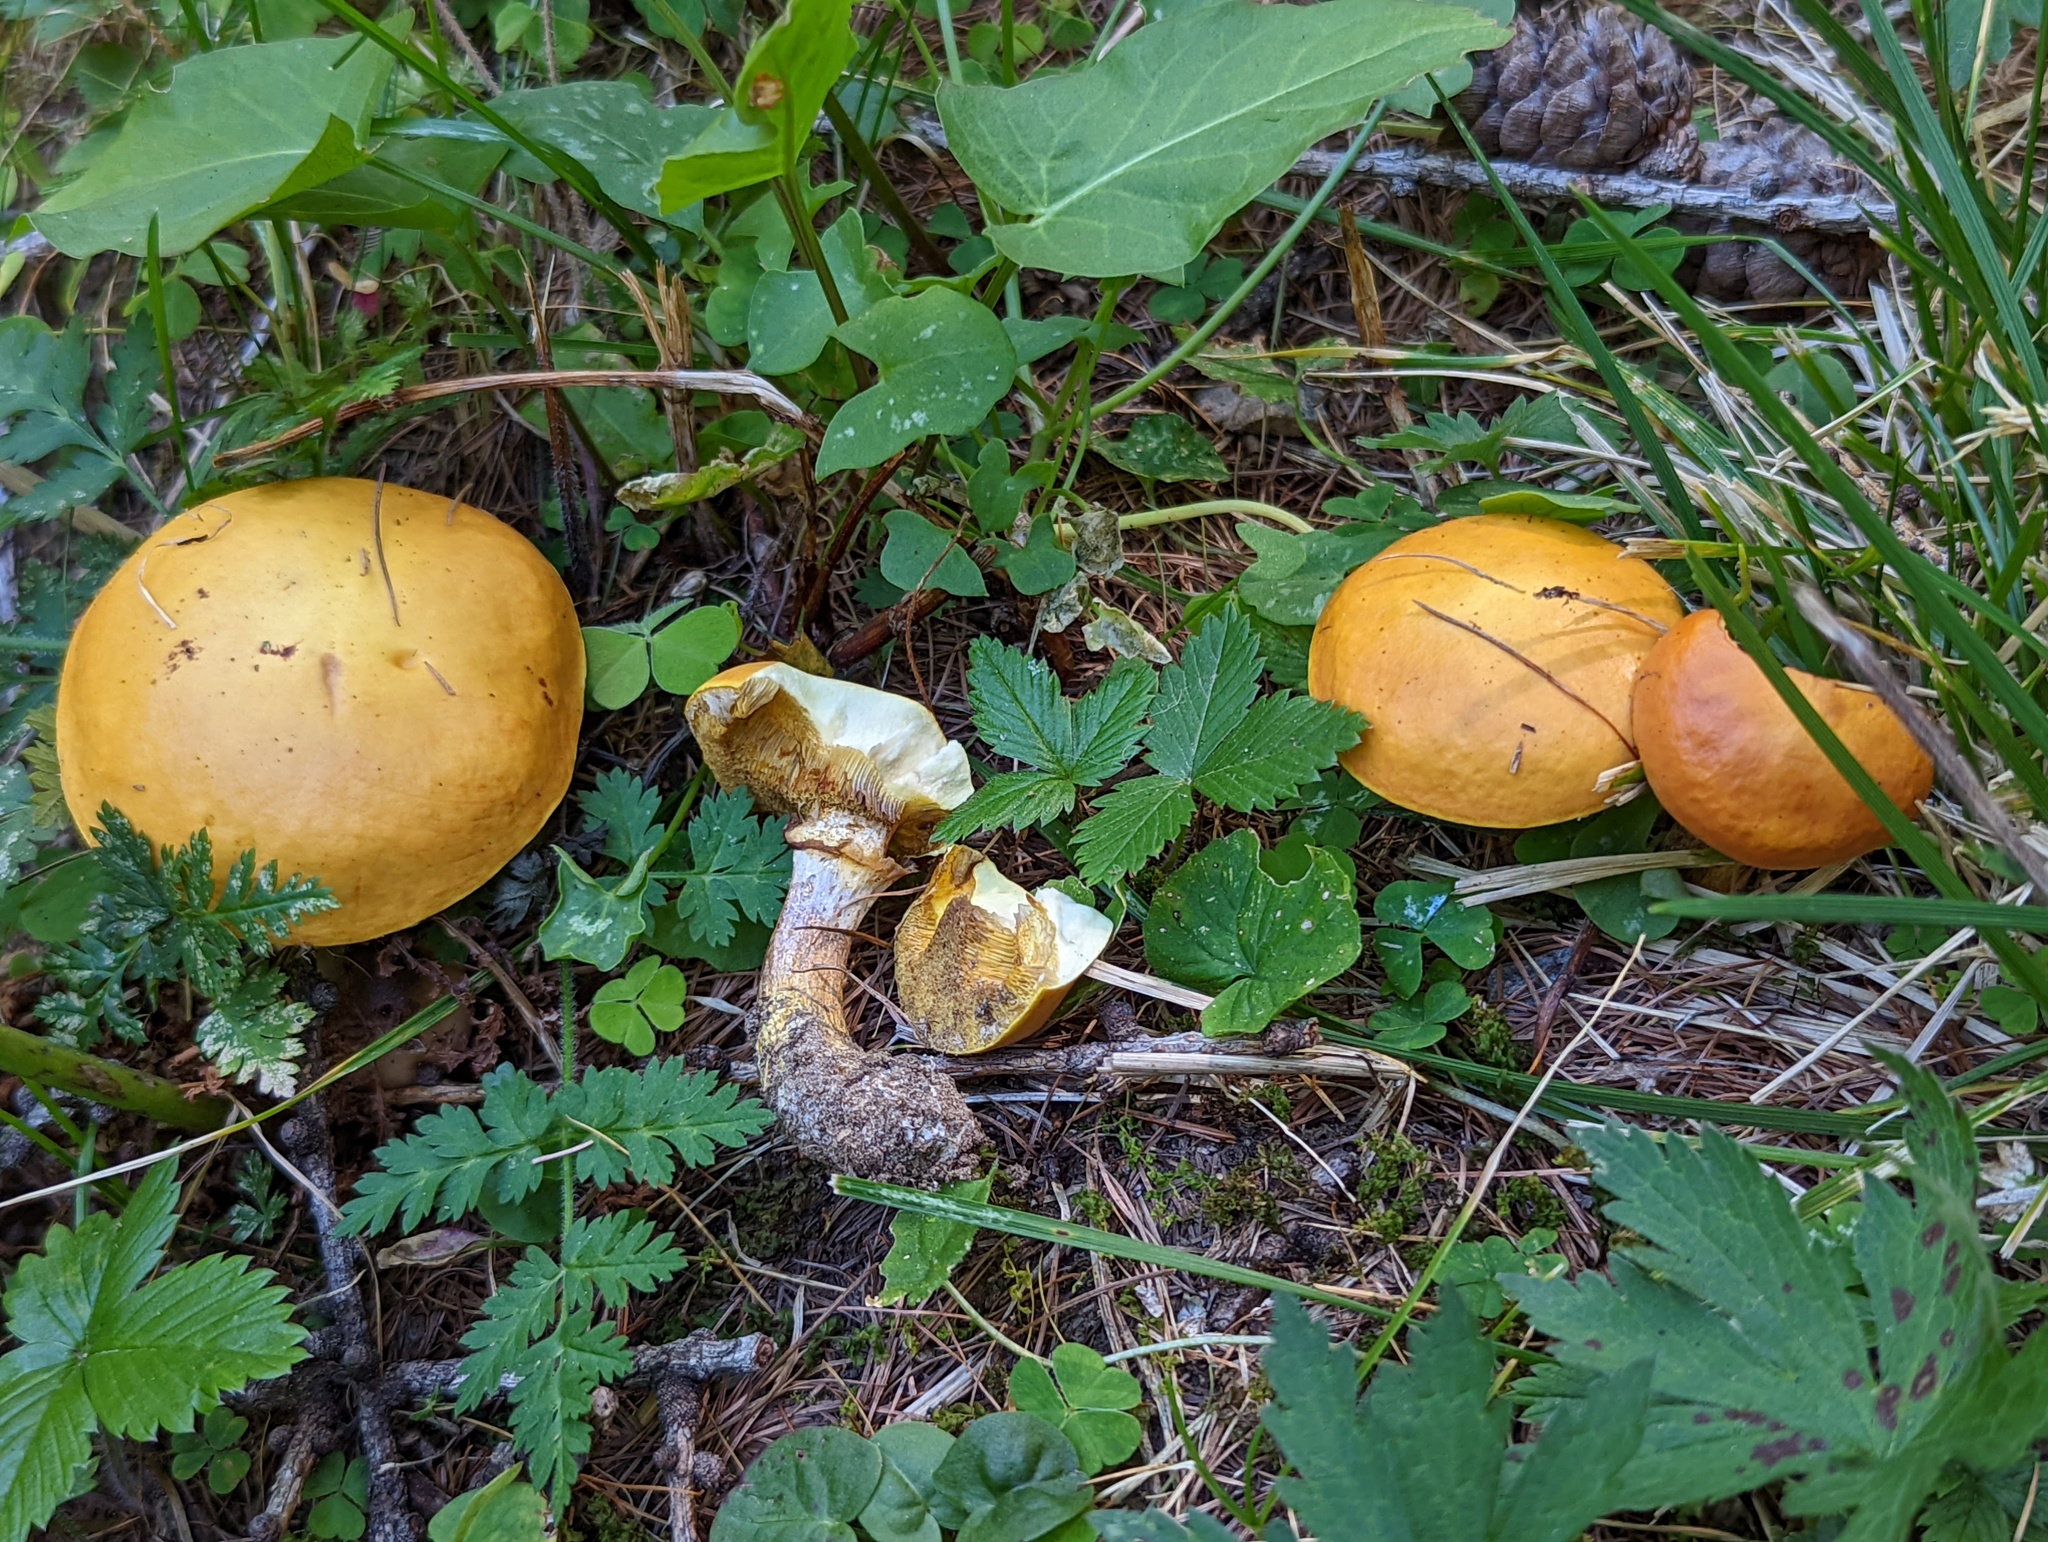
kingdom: Fungi
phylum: Basidiomycota
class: Agaricomycetes
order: Boletales
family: Suillaceae
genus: Suillus
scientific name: Suillus grevillei
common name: Larch bolete
